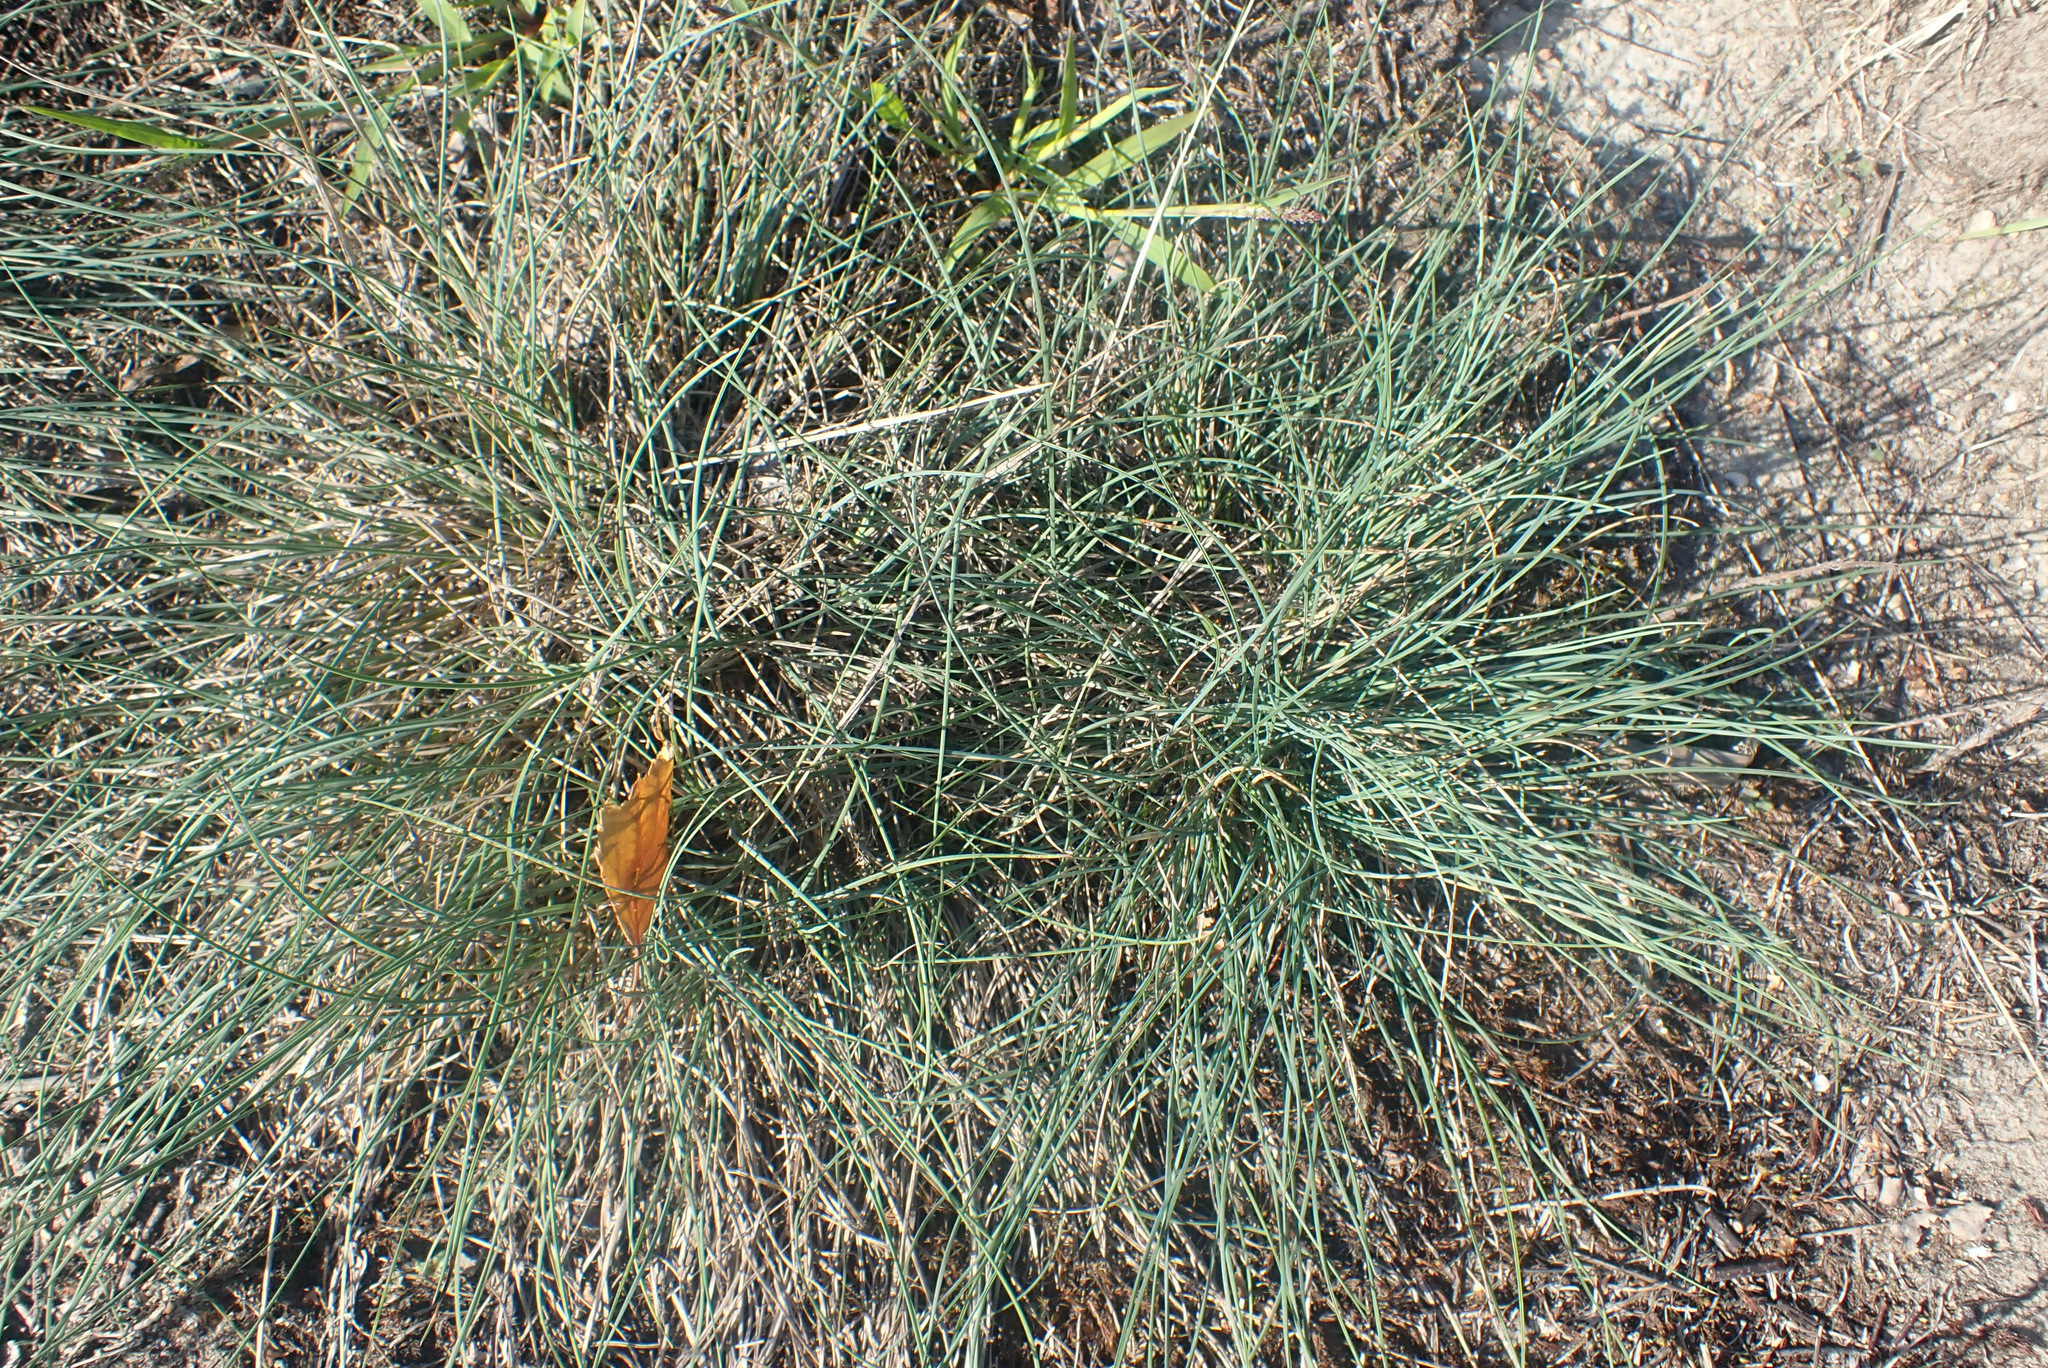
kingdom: Plantae
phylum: Tracheophyta
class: Liliopsida
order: Poales
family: Poaceae
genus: Festuca
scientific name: Festuca trachyphylla
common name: Hard fescue
